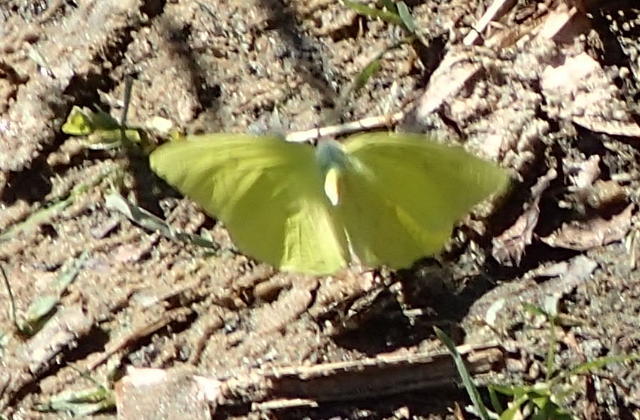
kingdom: Animalia
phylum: Arthropoda
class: Insecta
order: Lepidoptera
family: Pieridae
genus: Phoebis
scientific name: Phoebis sennae
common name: Cloudless sulphur
